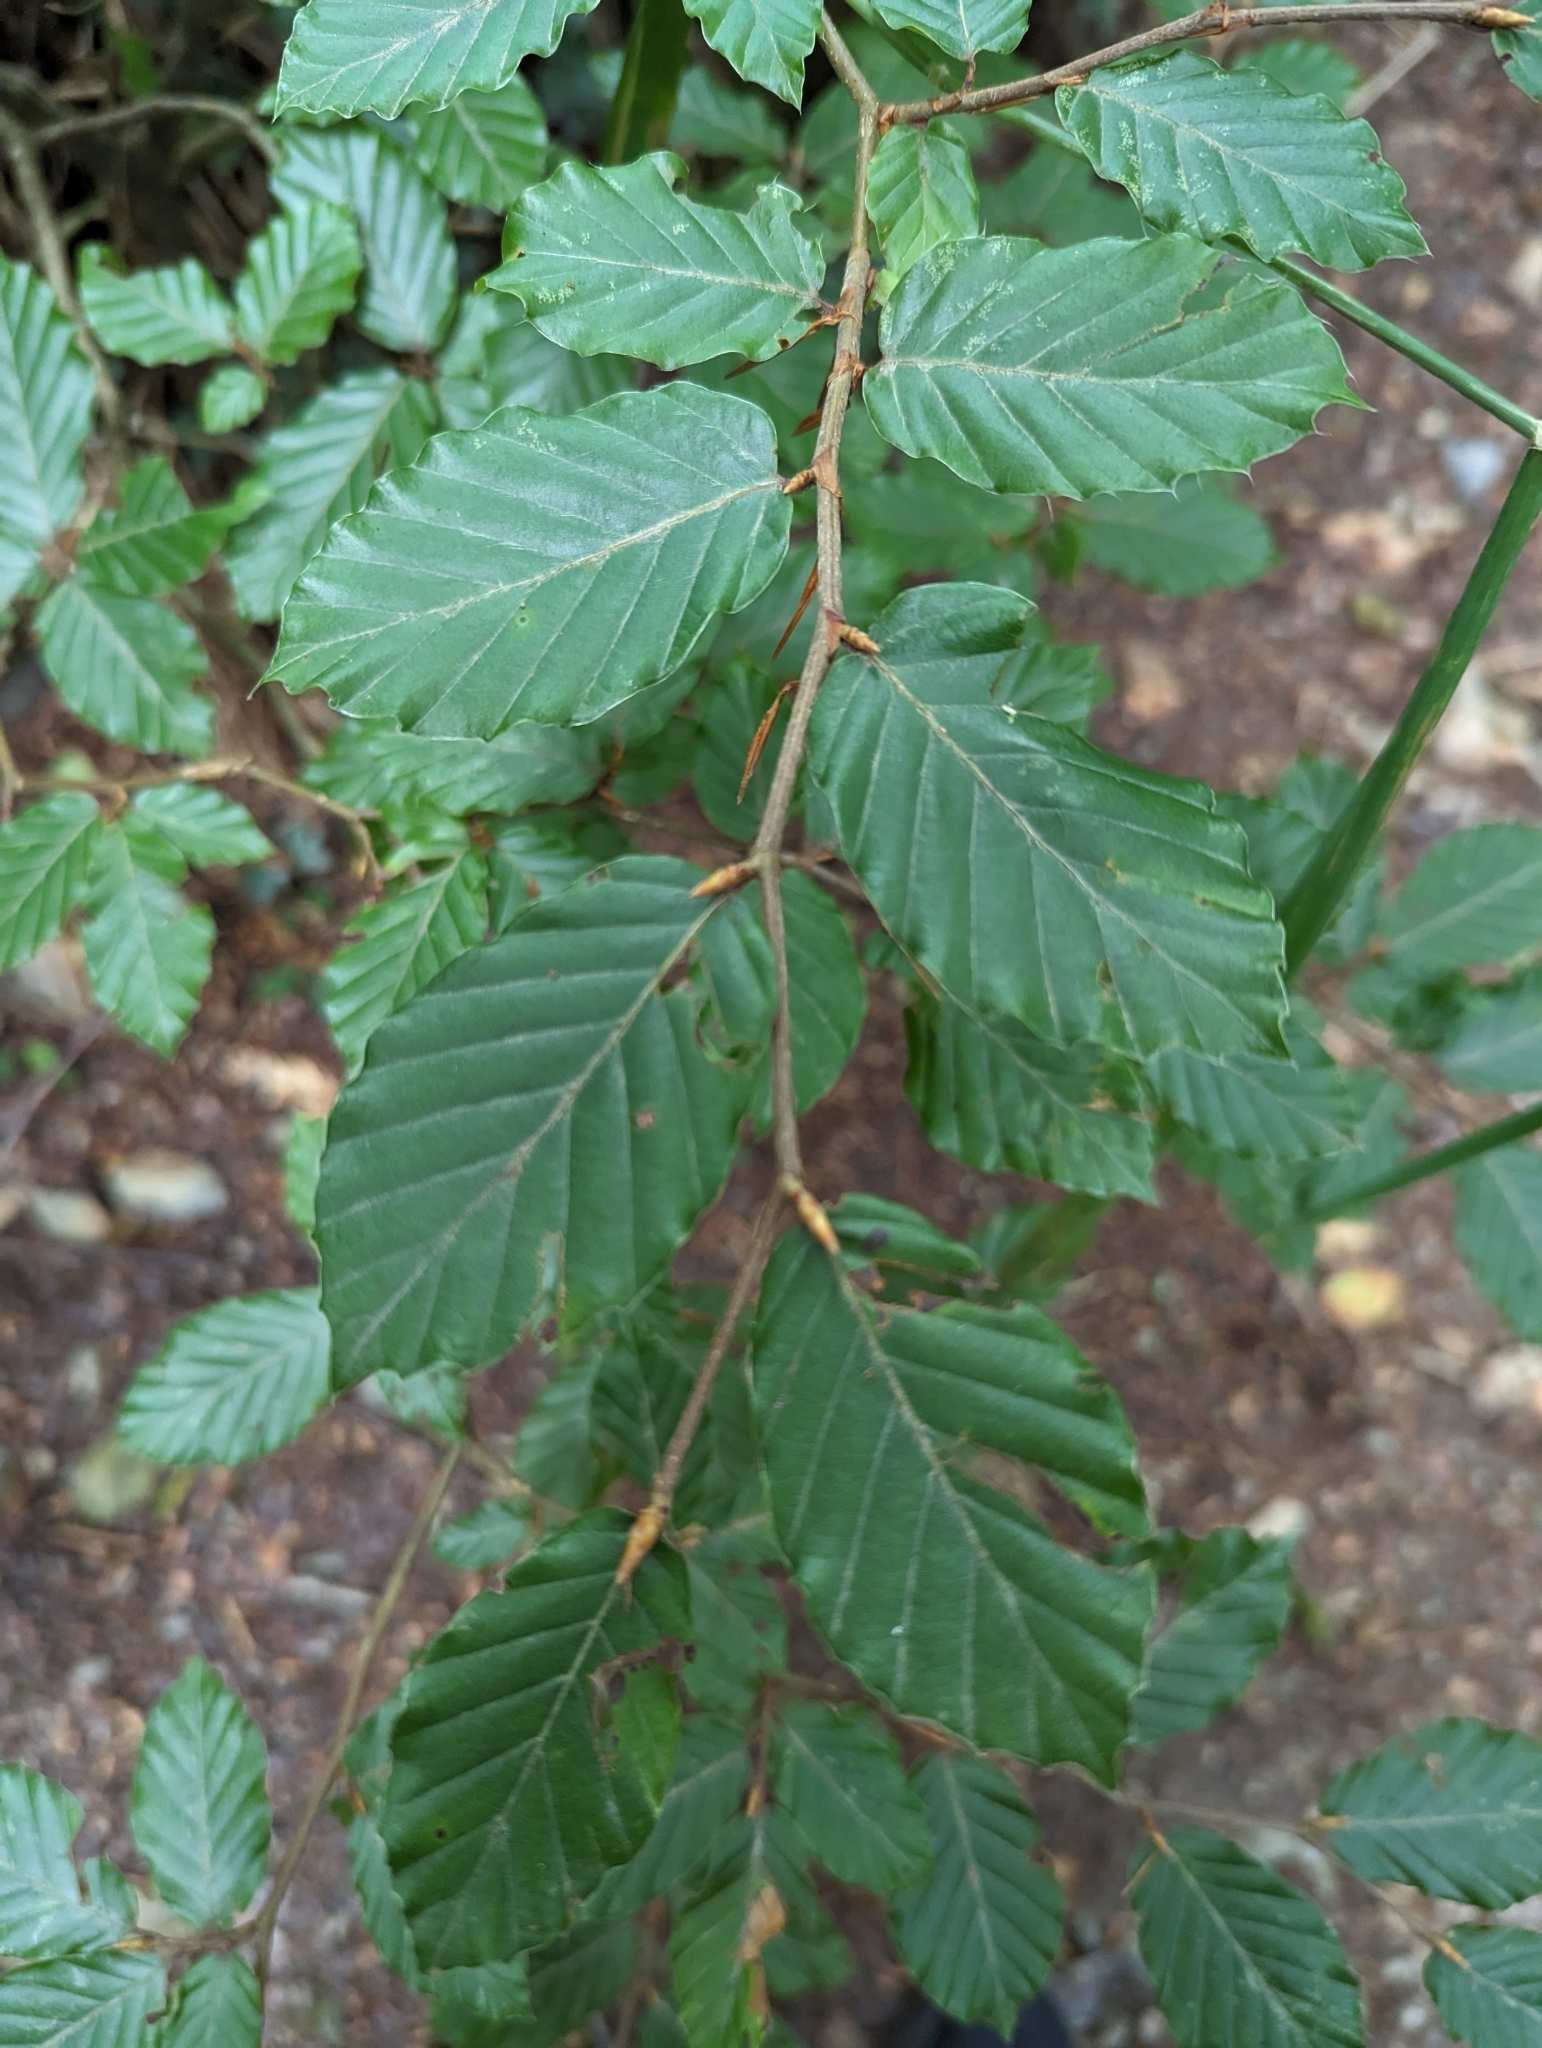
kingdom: Plantae
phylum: Tracheophyta
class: Magnoliopsida
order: Fagales
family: Fagaceae
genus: Fagus
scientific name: Fagus sylvatica
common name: Beech
